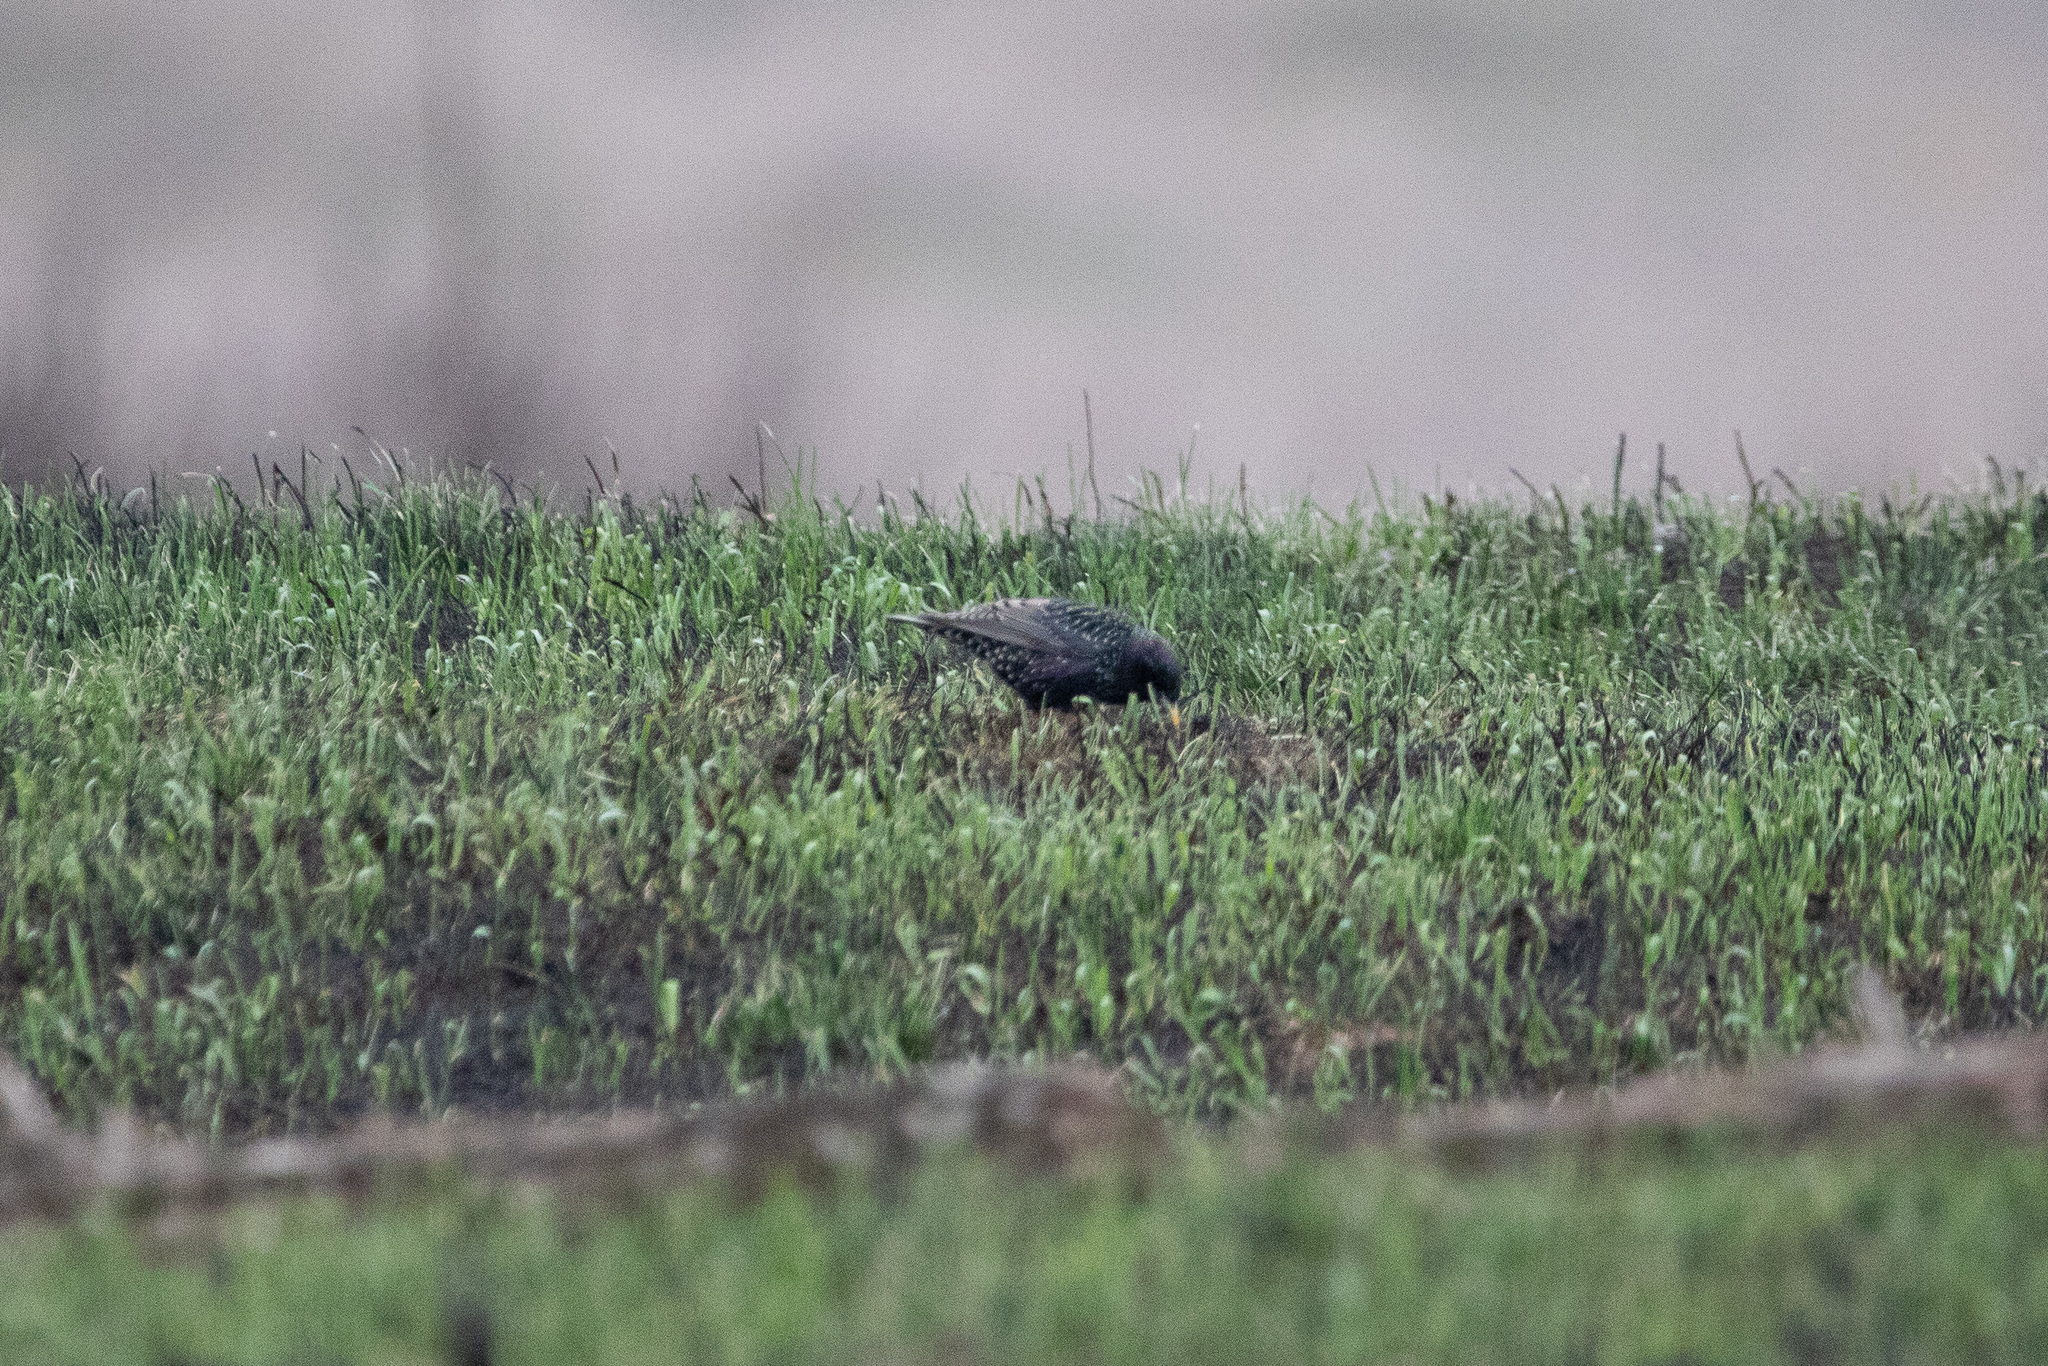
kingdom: Animalia
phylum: Chordata
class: Aves
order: Passeriformes
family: Sturnidae
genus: Sturnus
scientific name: Sturnus vulgaris
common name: Common starling
